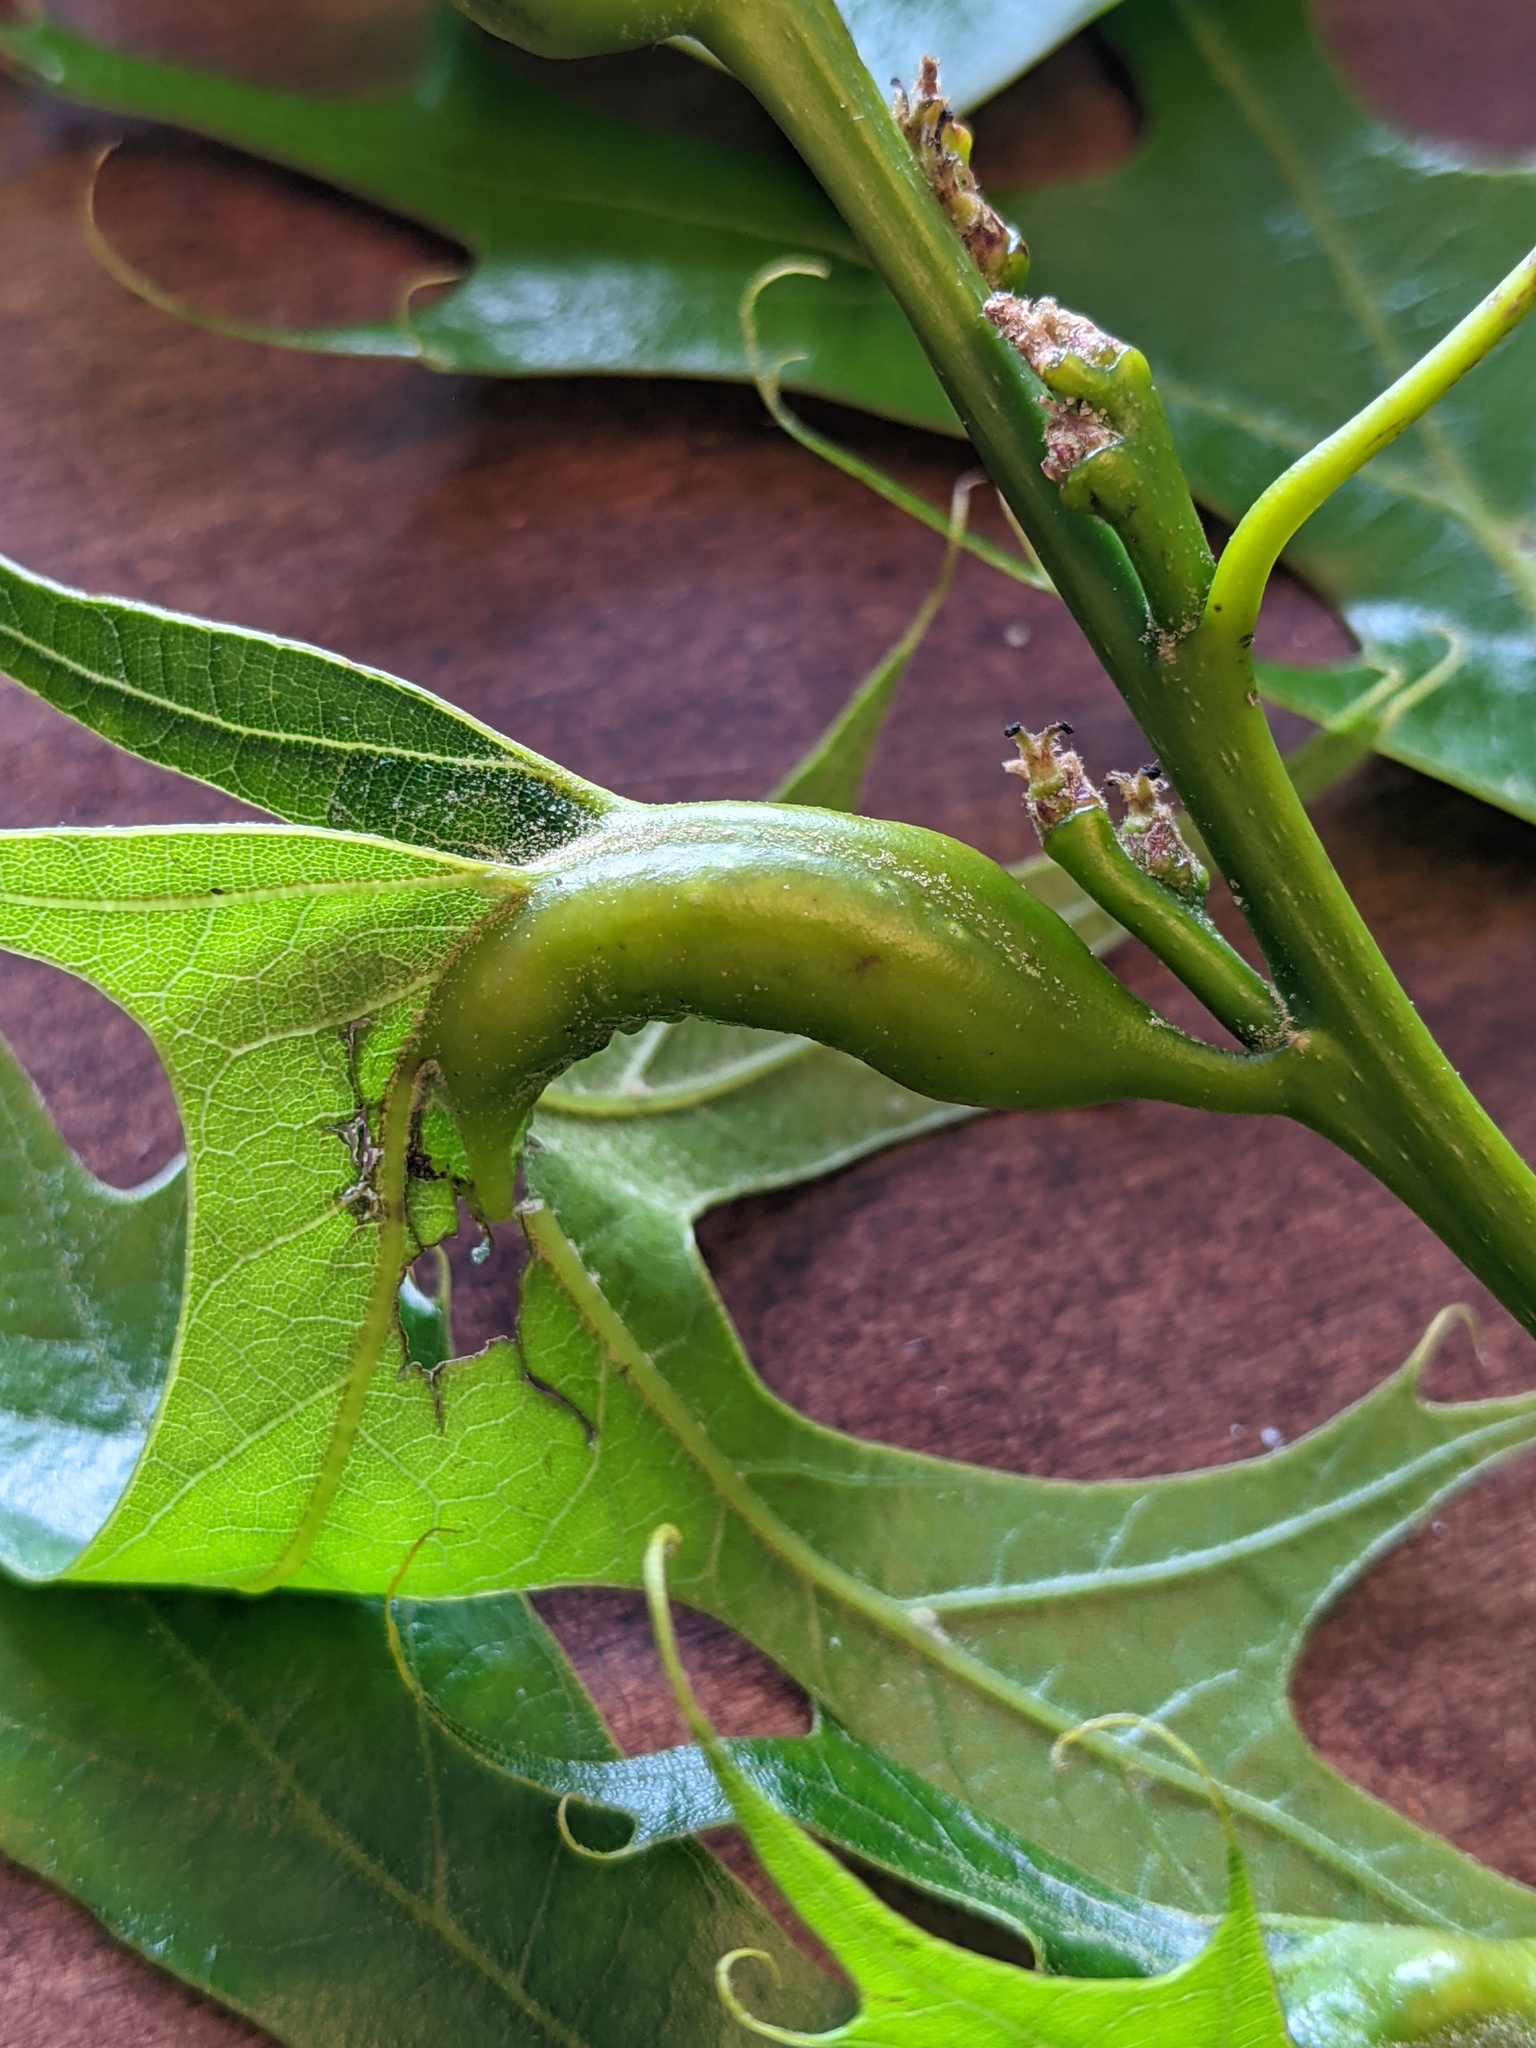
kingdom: Animalia
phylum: Arthropoda
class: Insecta
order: Hymenoptera
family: Cynipidae
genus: Melikaiella
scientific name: Melikaiella tumifica
